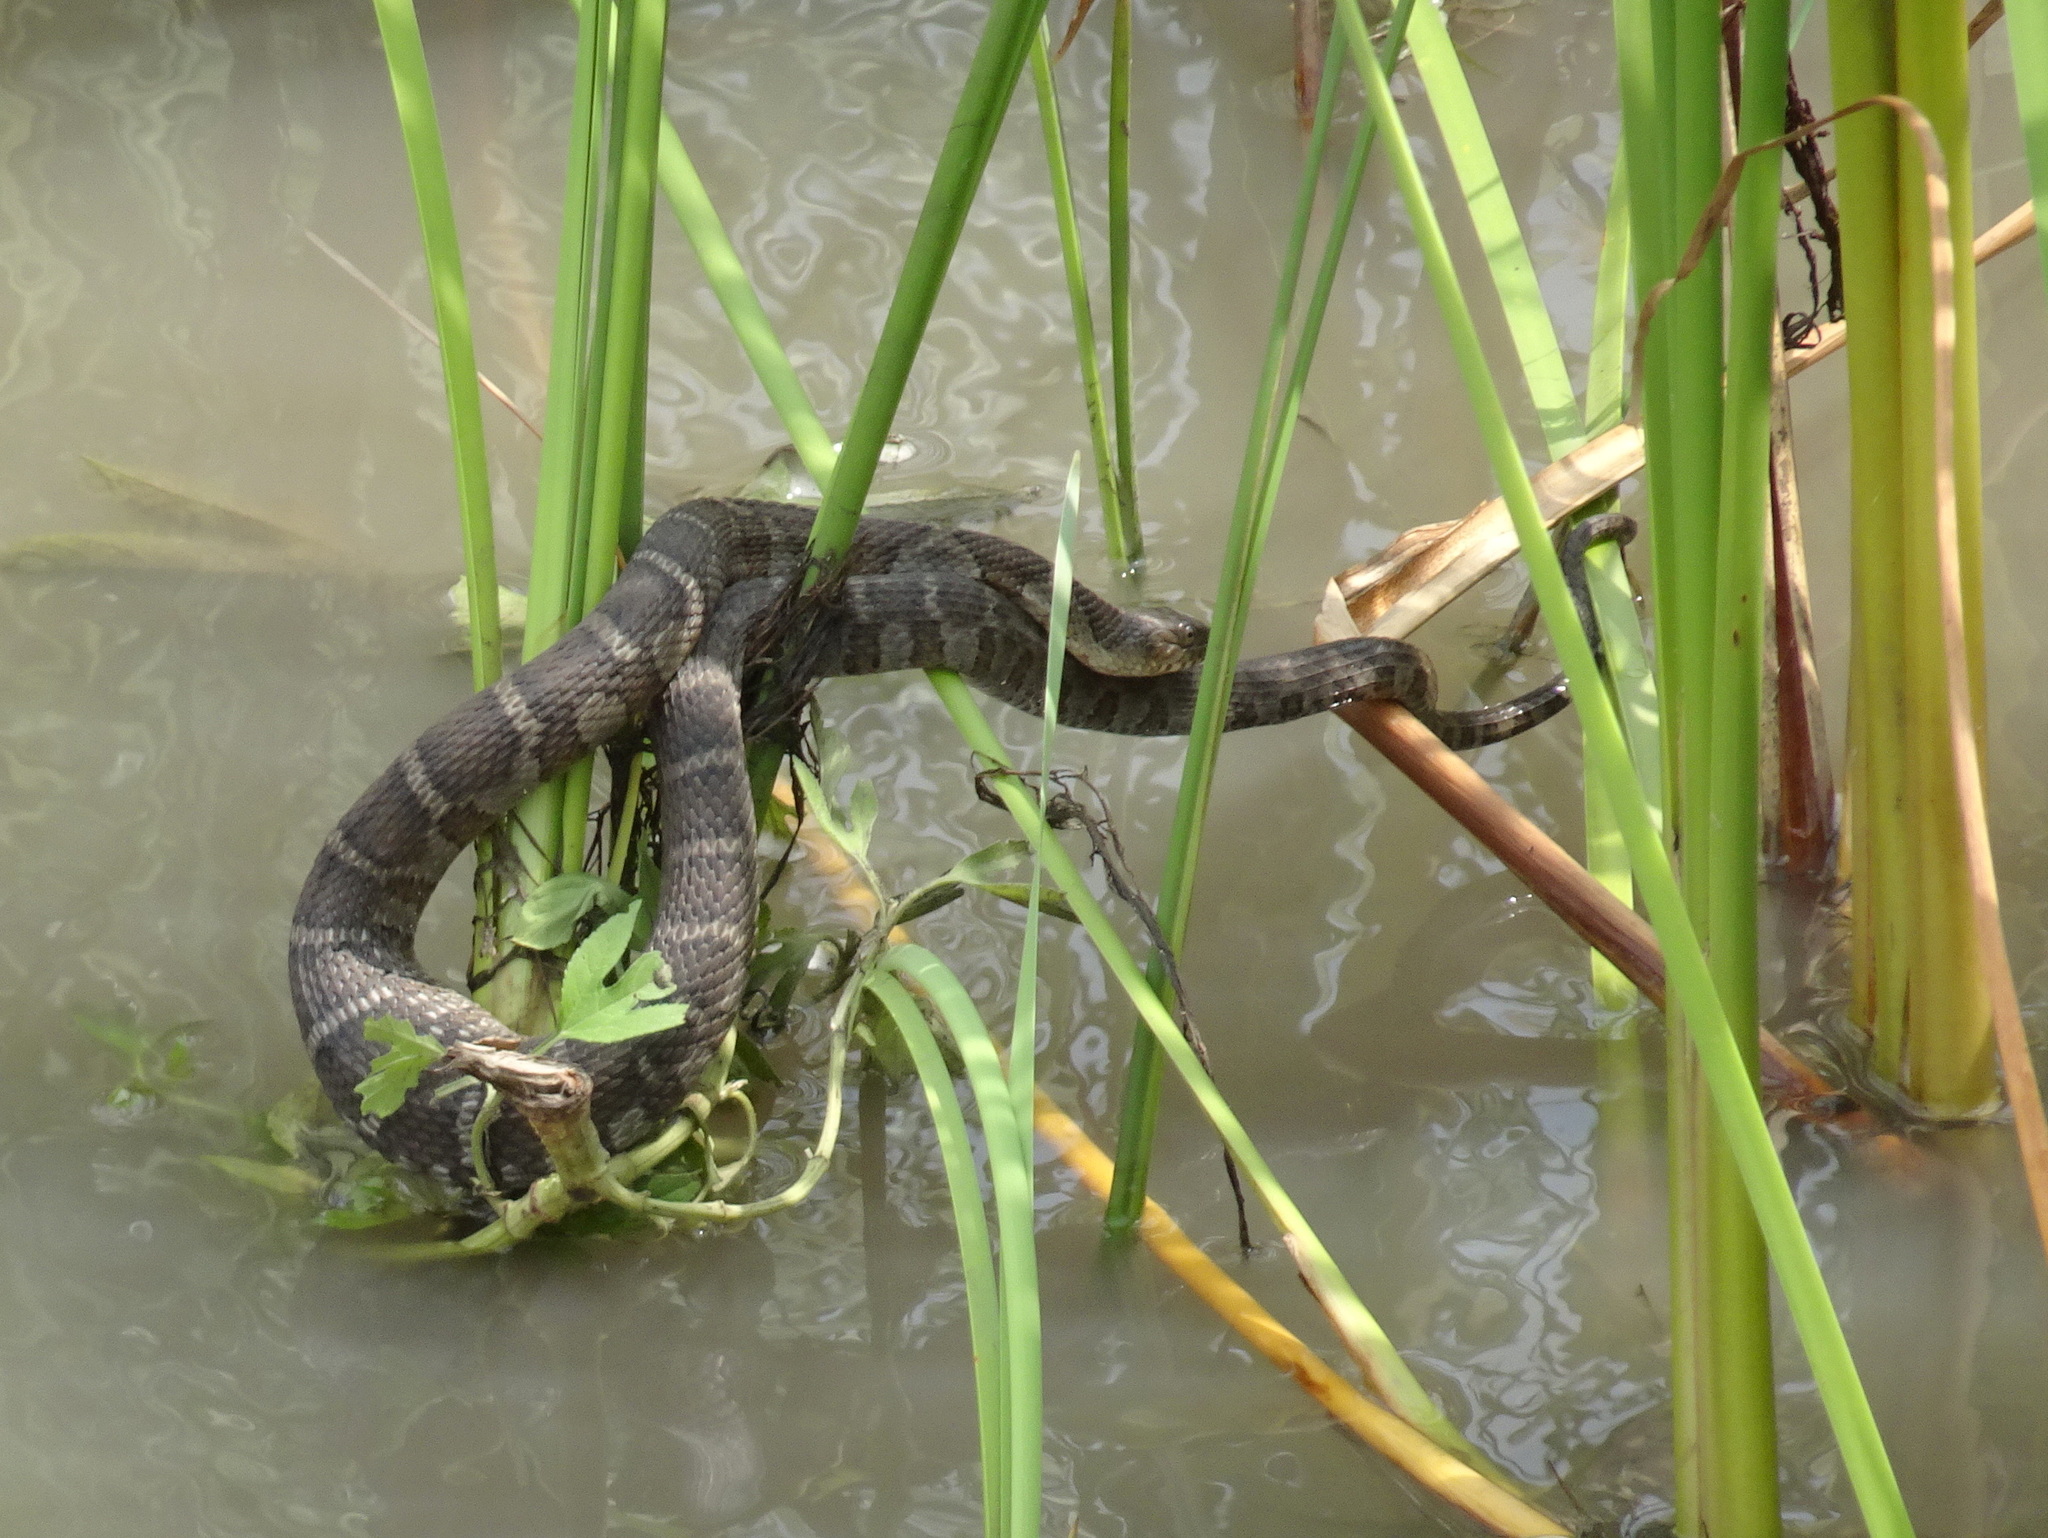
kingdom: Animalia
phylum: Chordata
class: Squamata
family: Colubridae
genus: Nerodia
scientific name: Nerodia sipedon
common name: Northern water snake
